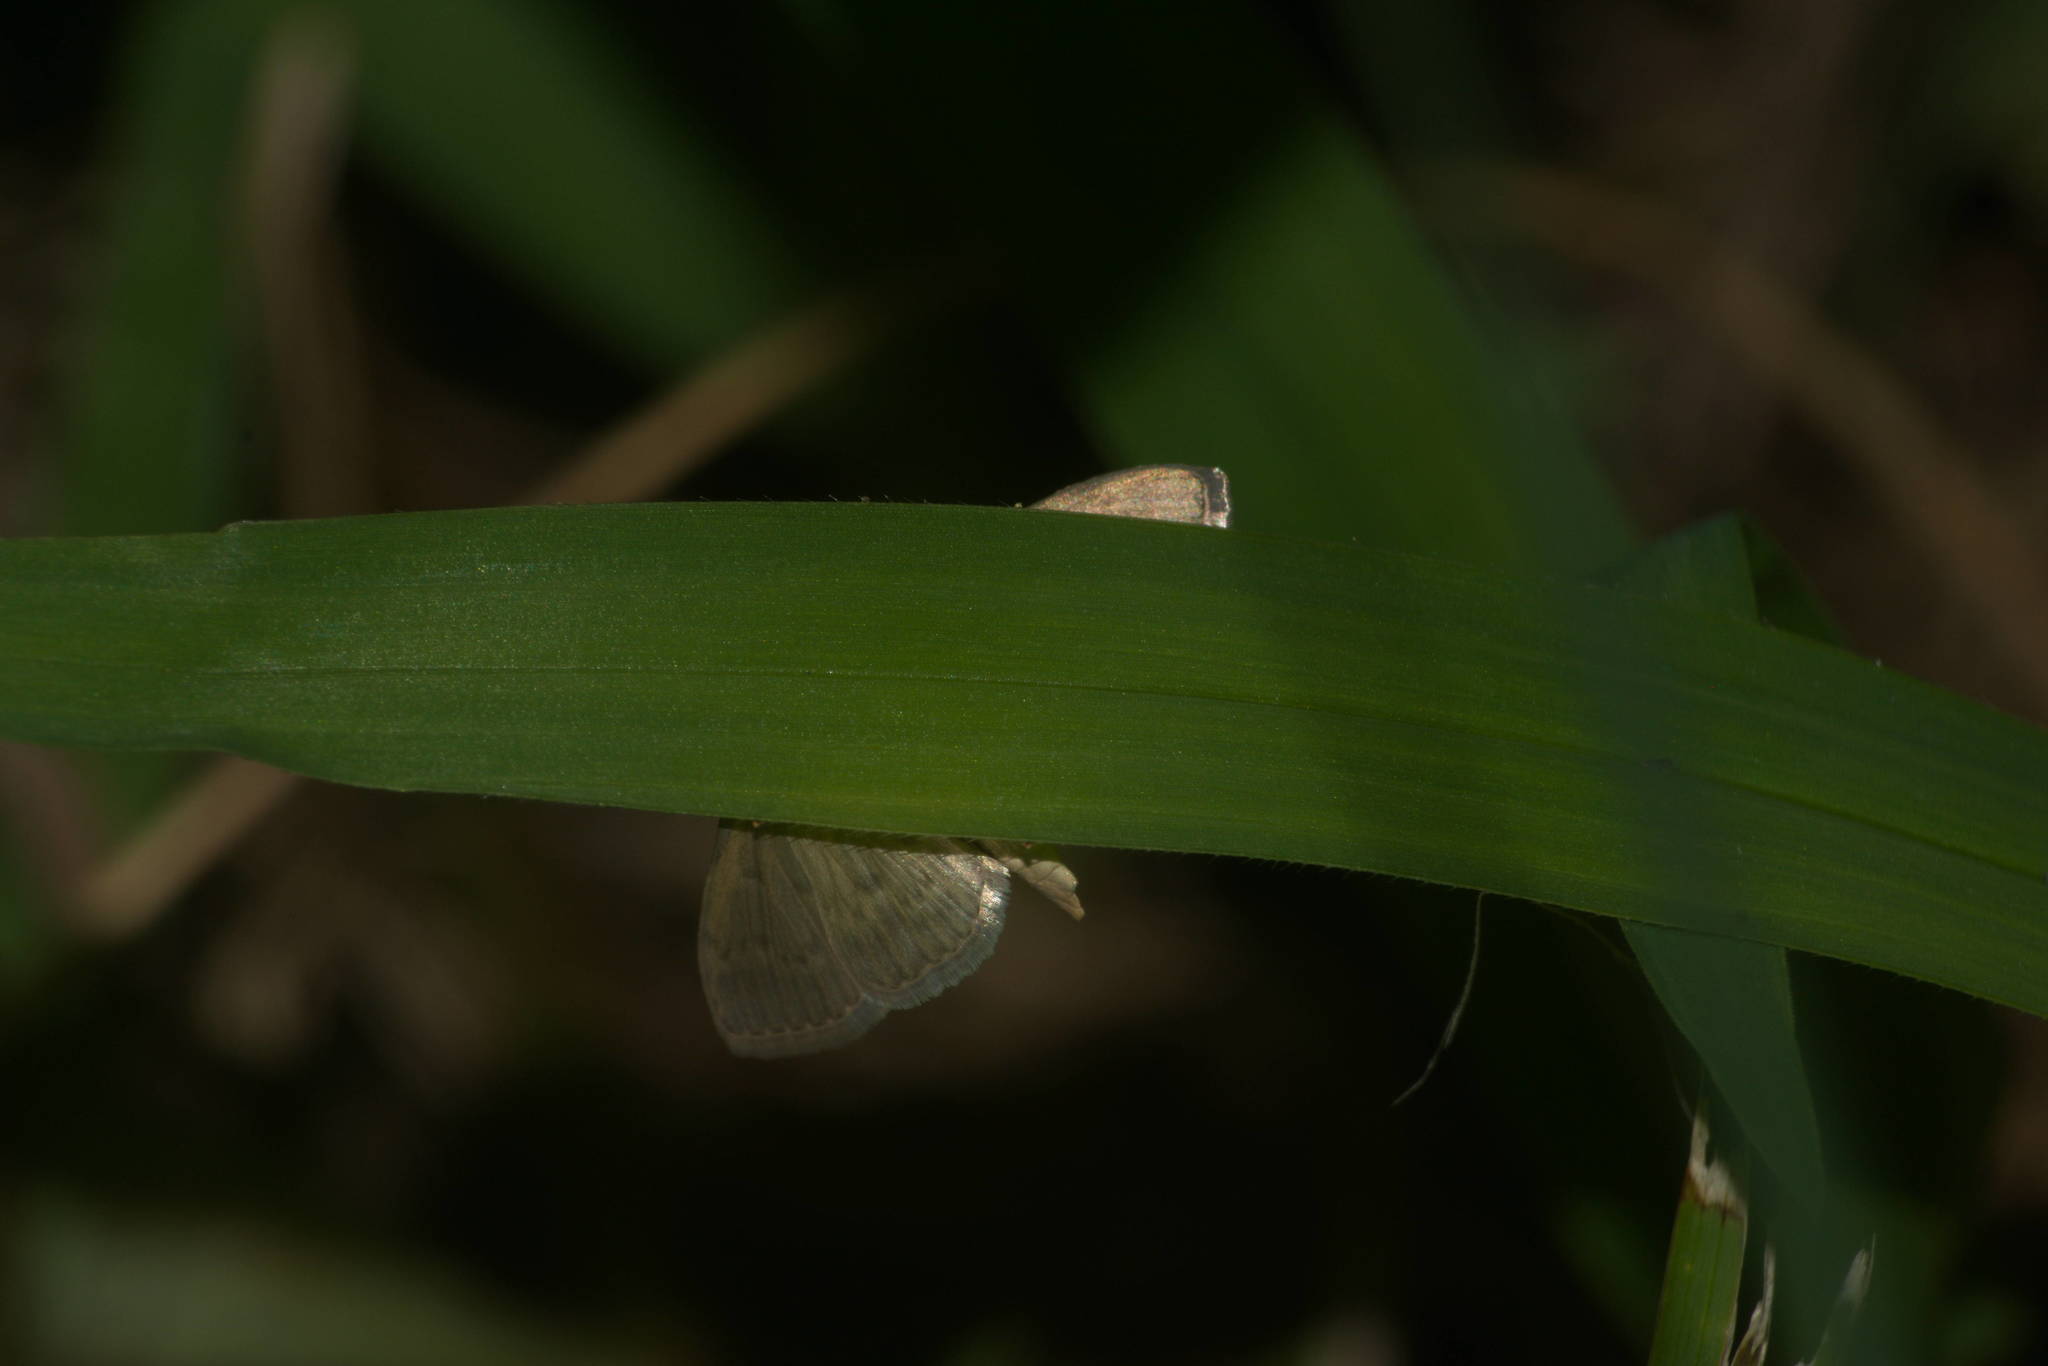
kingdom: Animalia
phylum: Arthropoda
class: Insecta
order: Lepidoptera
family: Crambidae
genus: Herpetogramma
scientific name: Herpetogramma licarsisalis
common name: Grass webworm
